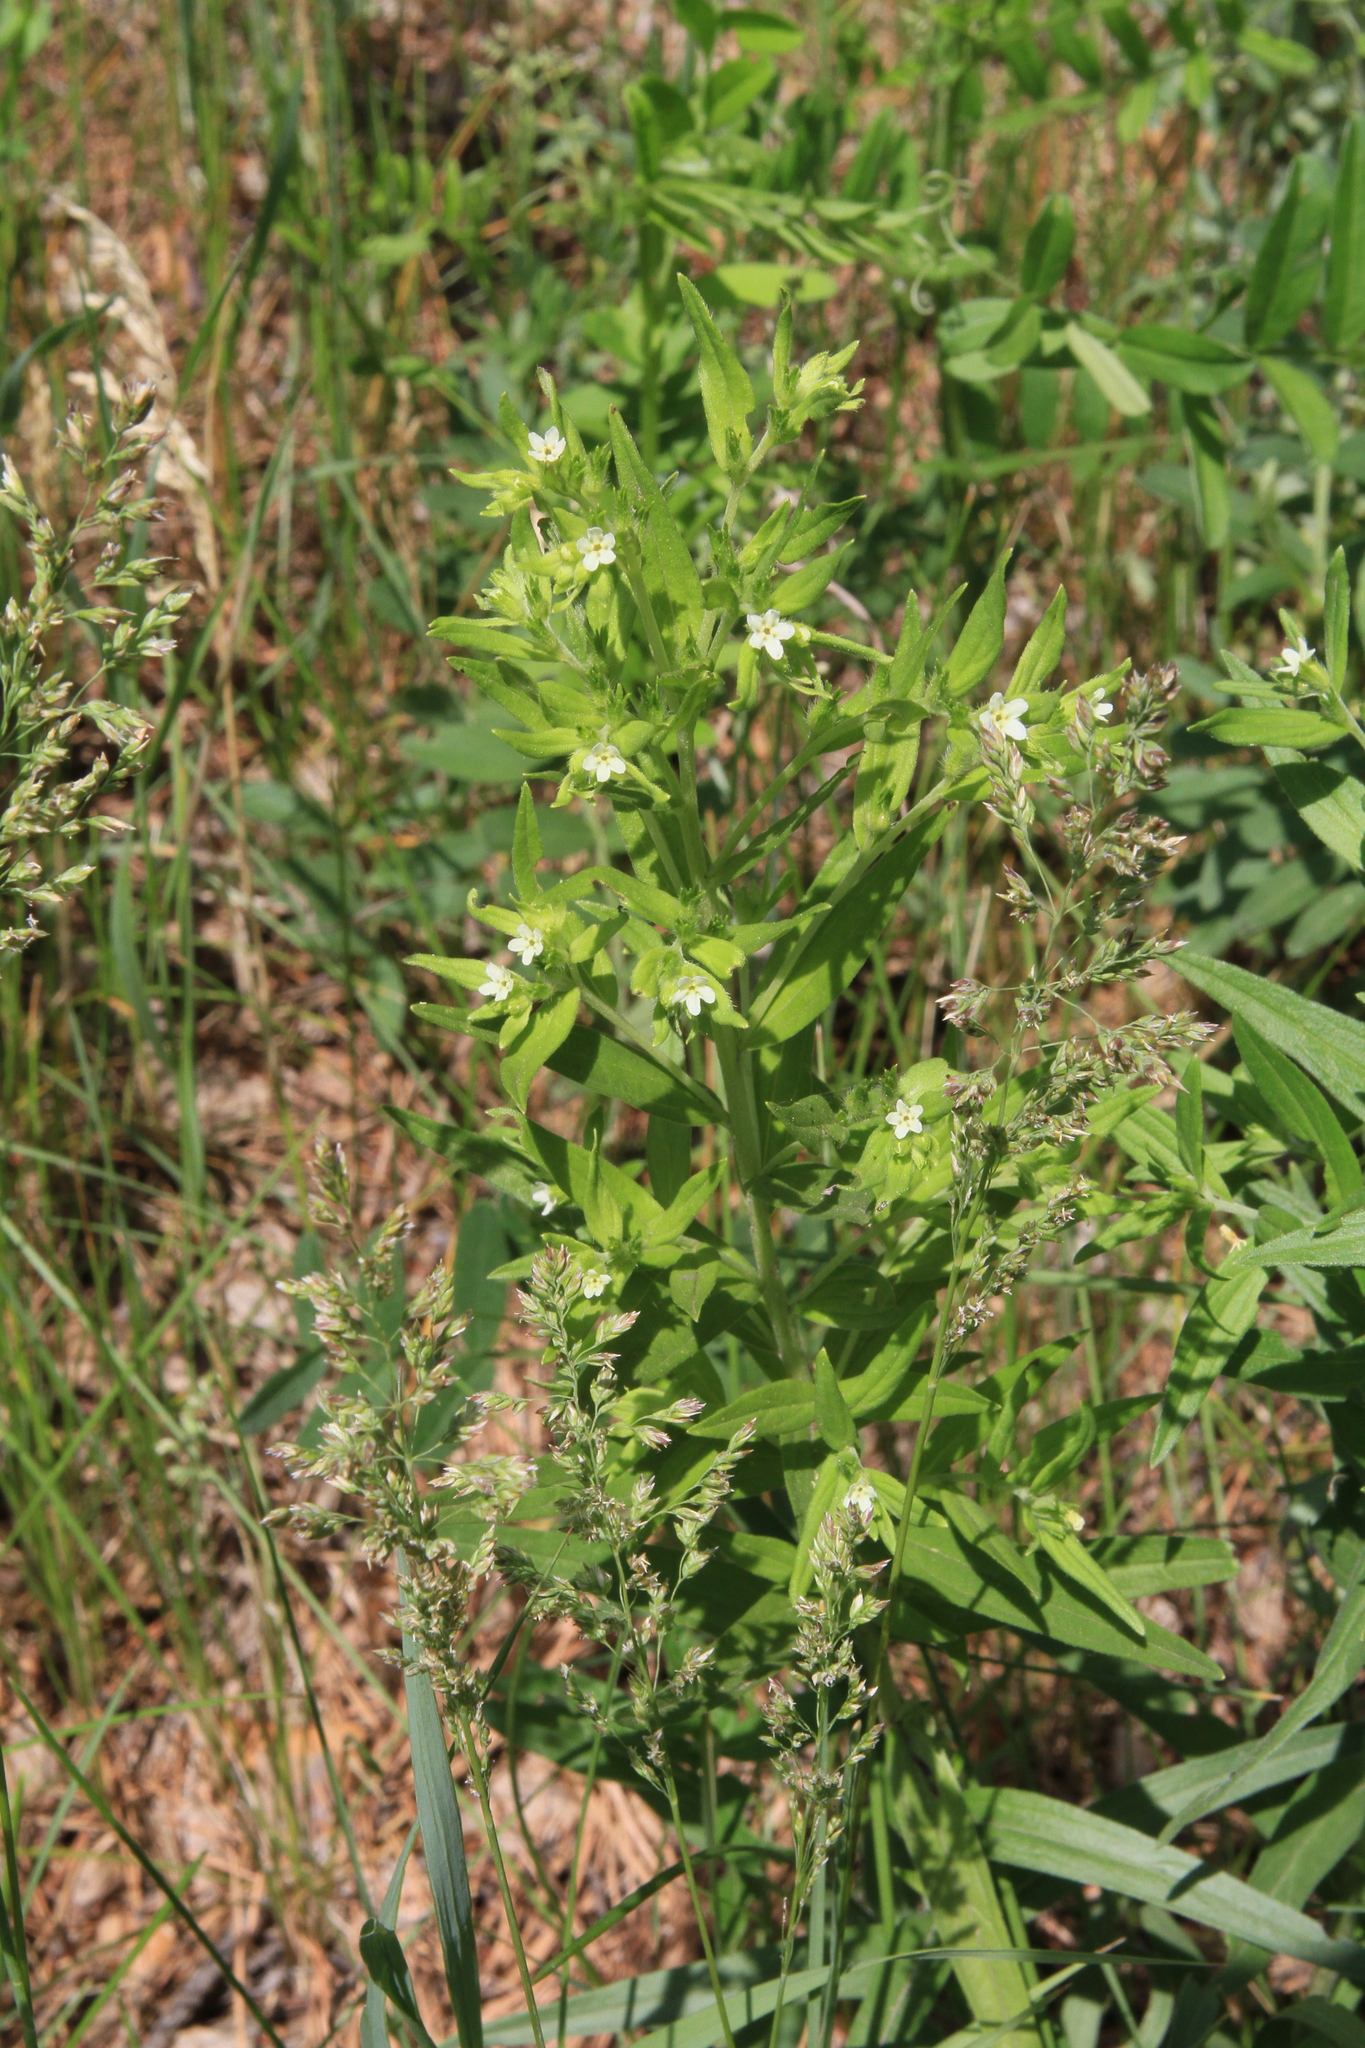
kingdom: Plantae
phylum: Tracheophyta
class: Magnoliopsida
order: Boraginales
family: Boraginaceae
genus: Lithospermum
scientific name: Lithospermum officinale
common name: Common gromwell
